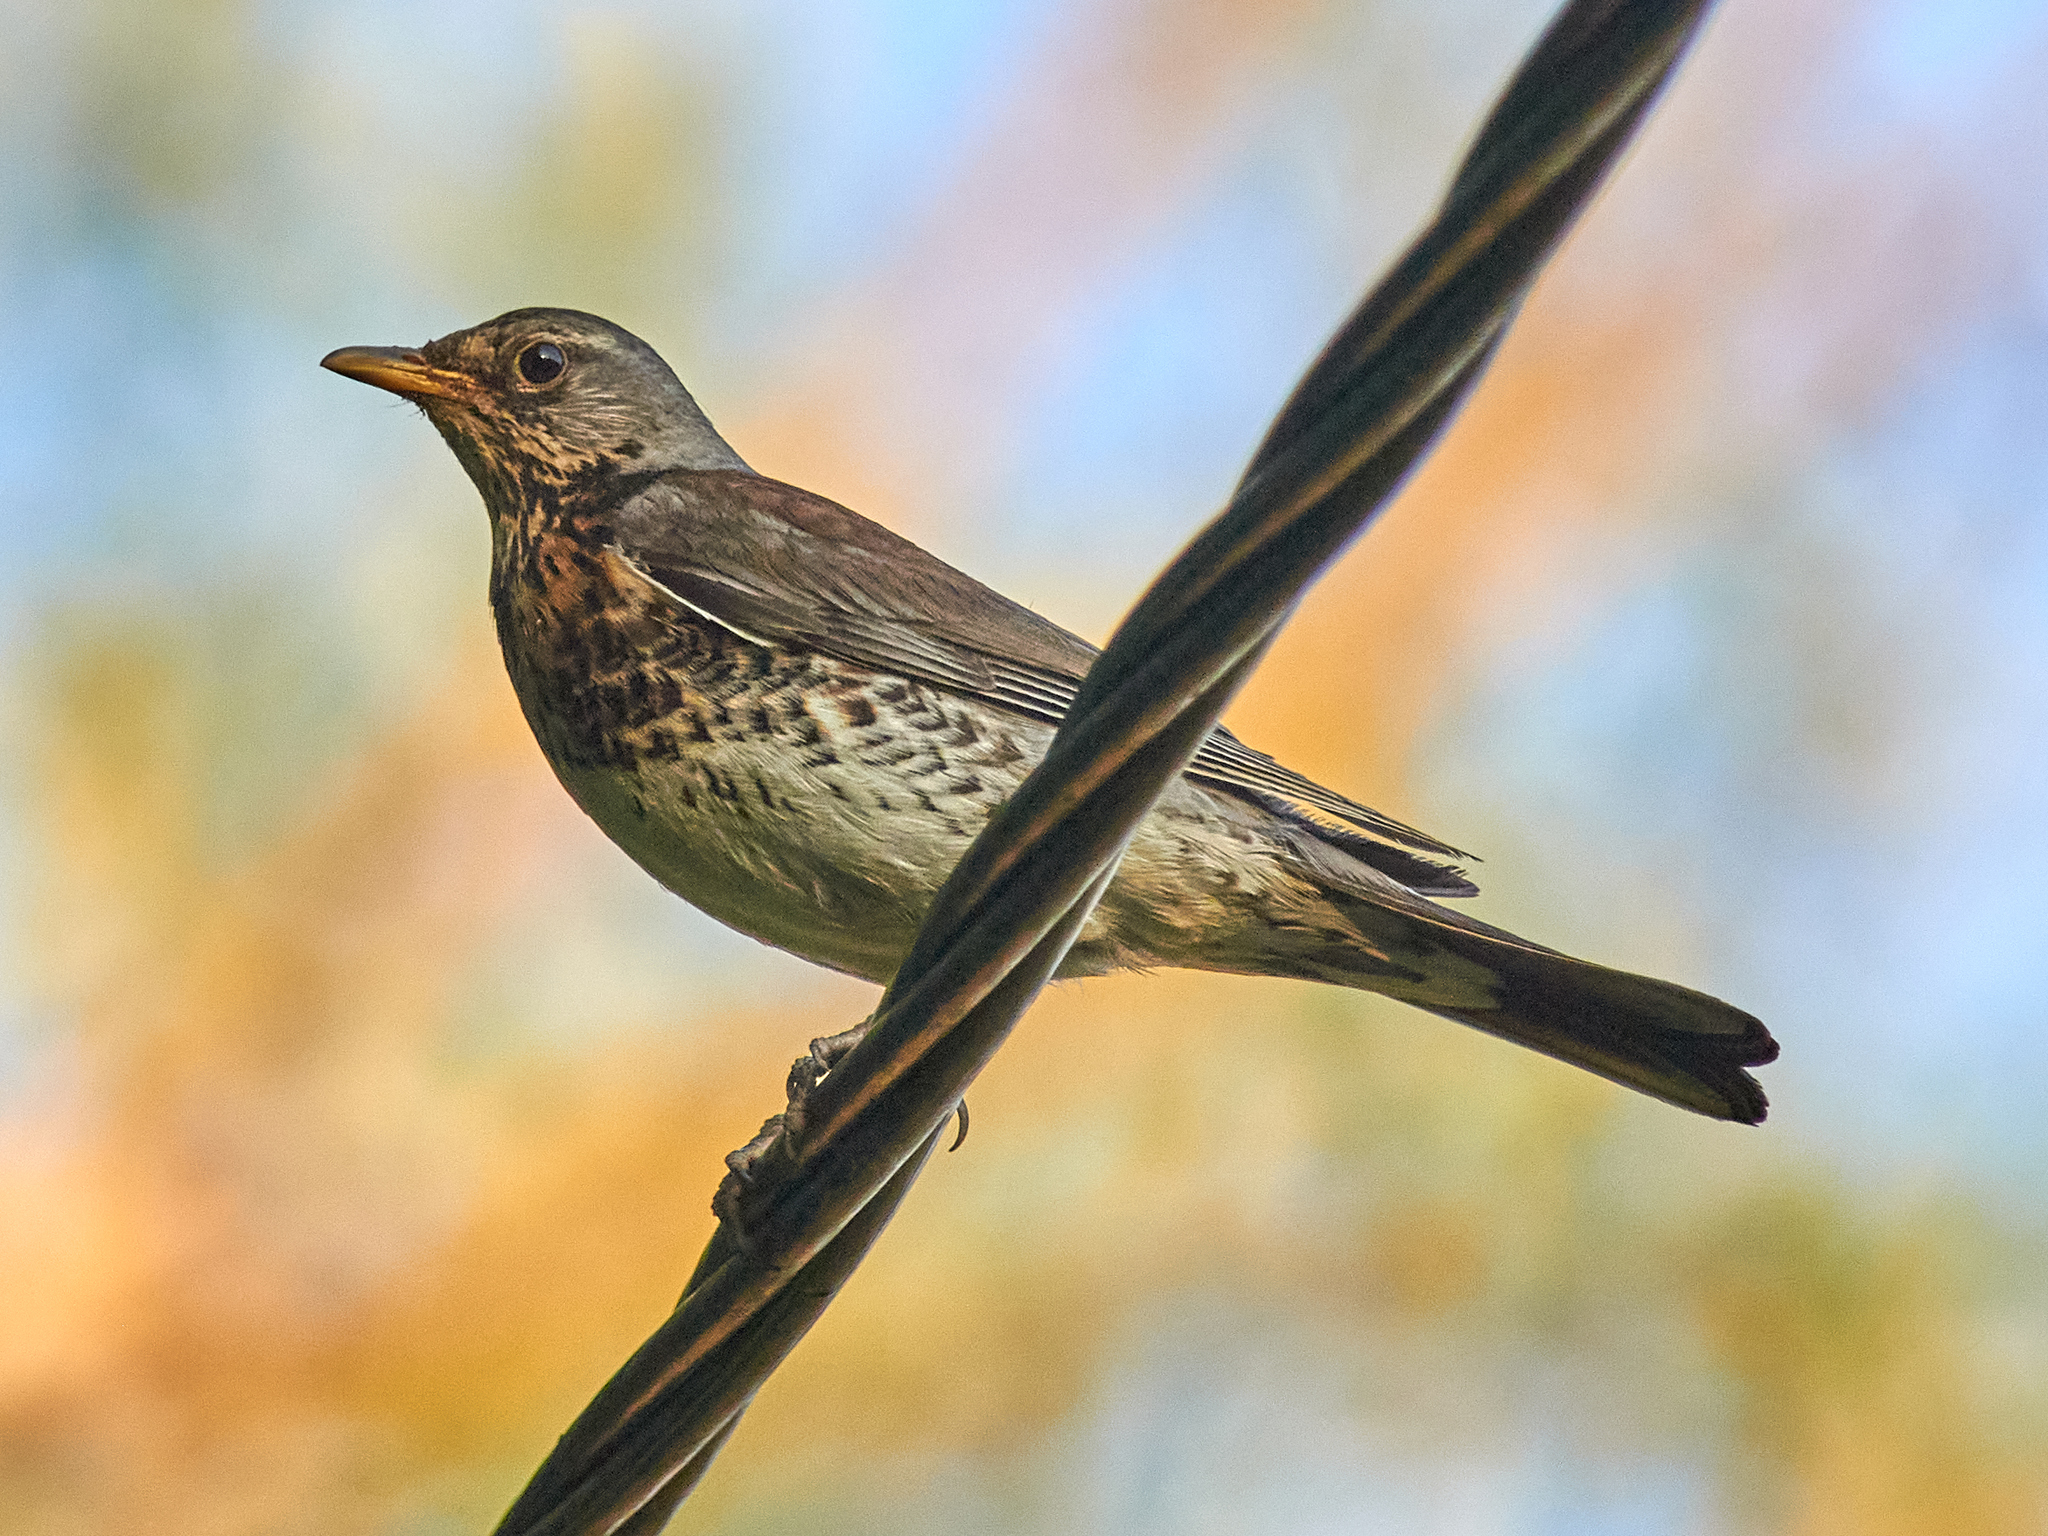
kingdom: Animalia
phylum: Chordata
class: Aves
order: Passeriformes
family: Turdidae
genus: Turdus
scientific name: Turdus pilaris
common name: Fieldfare
